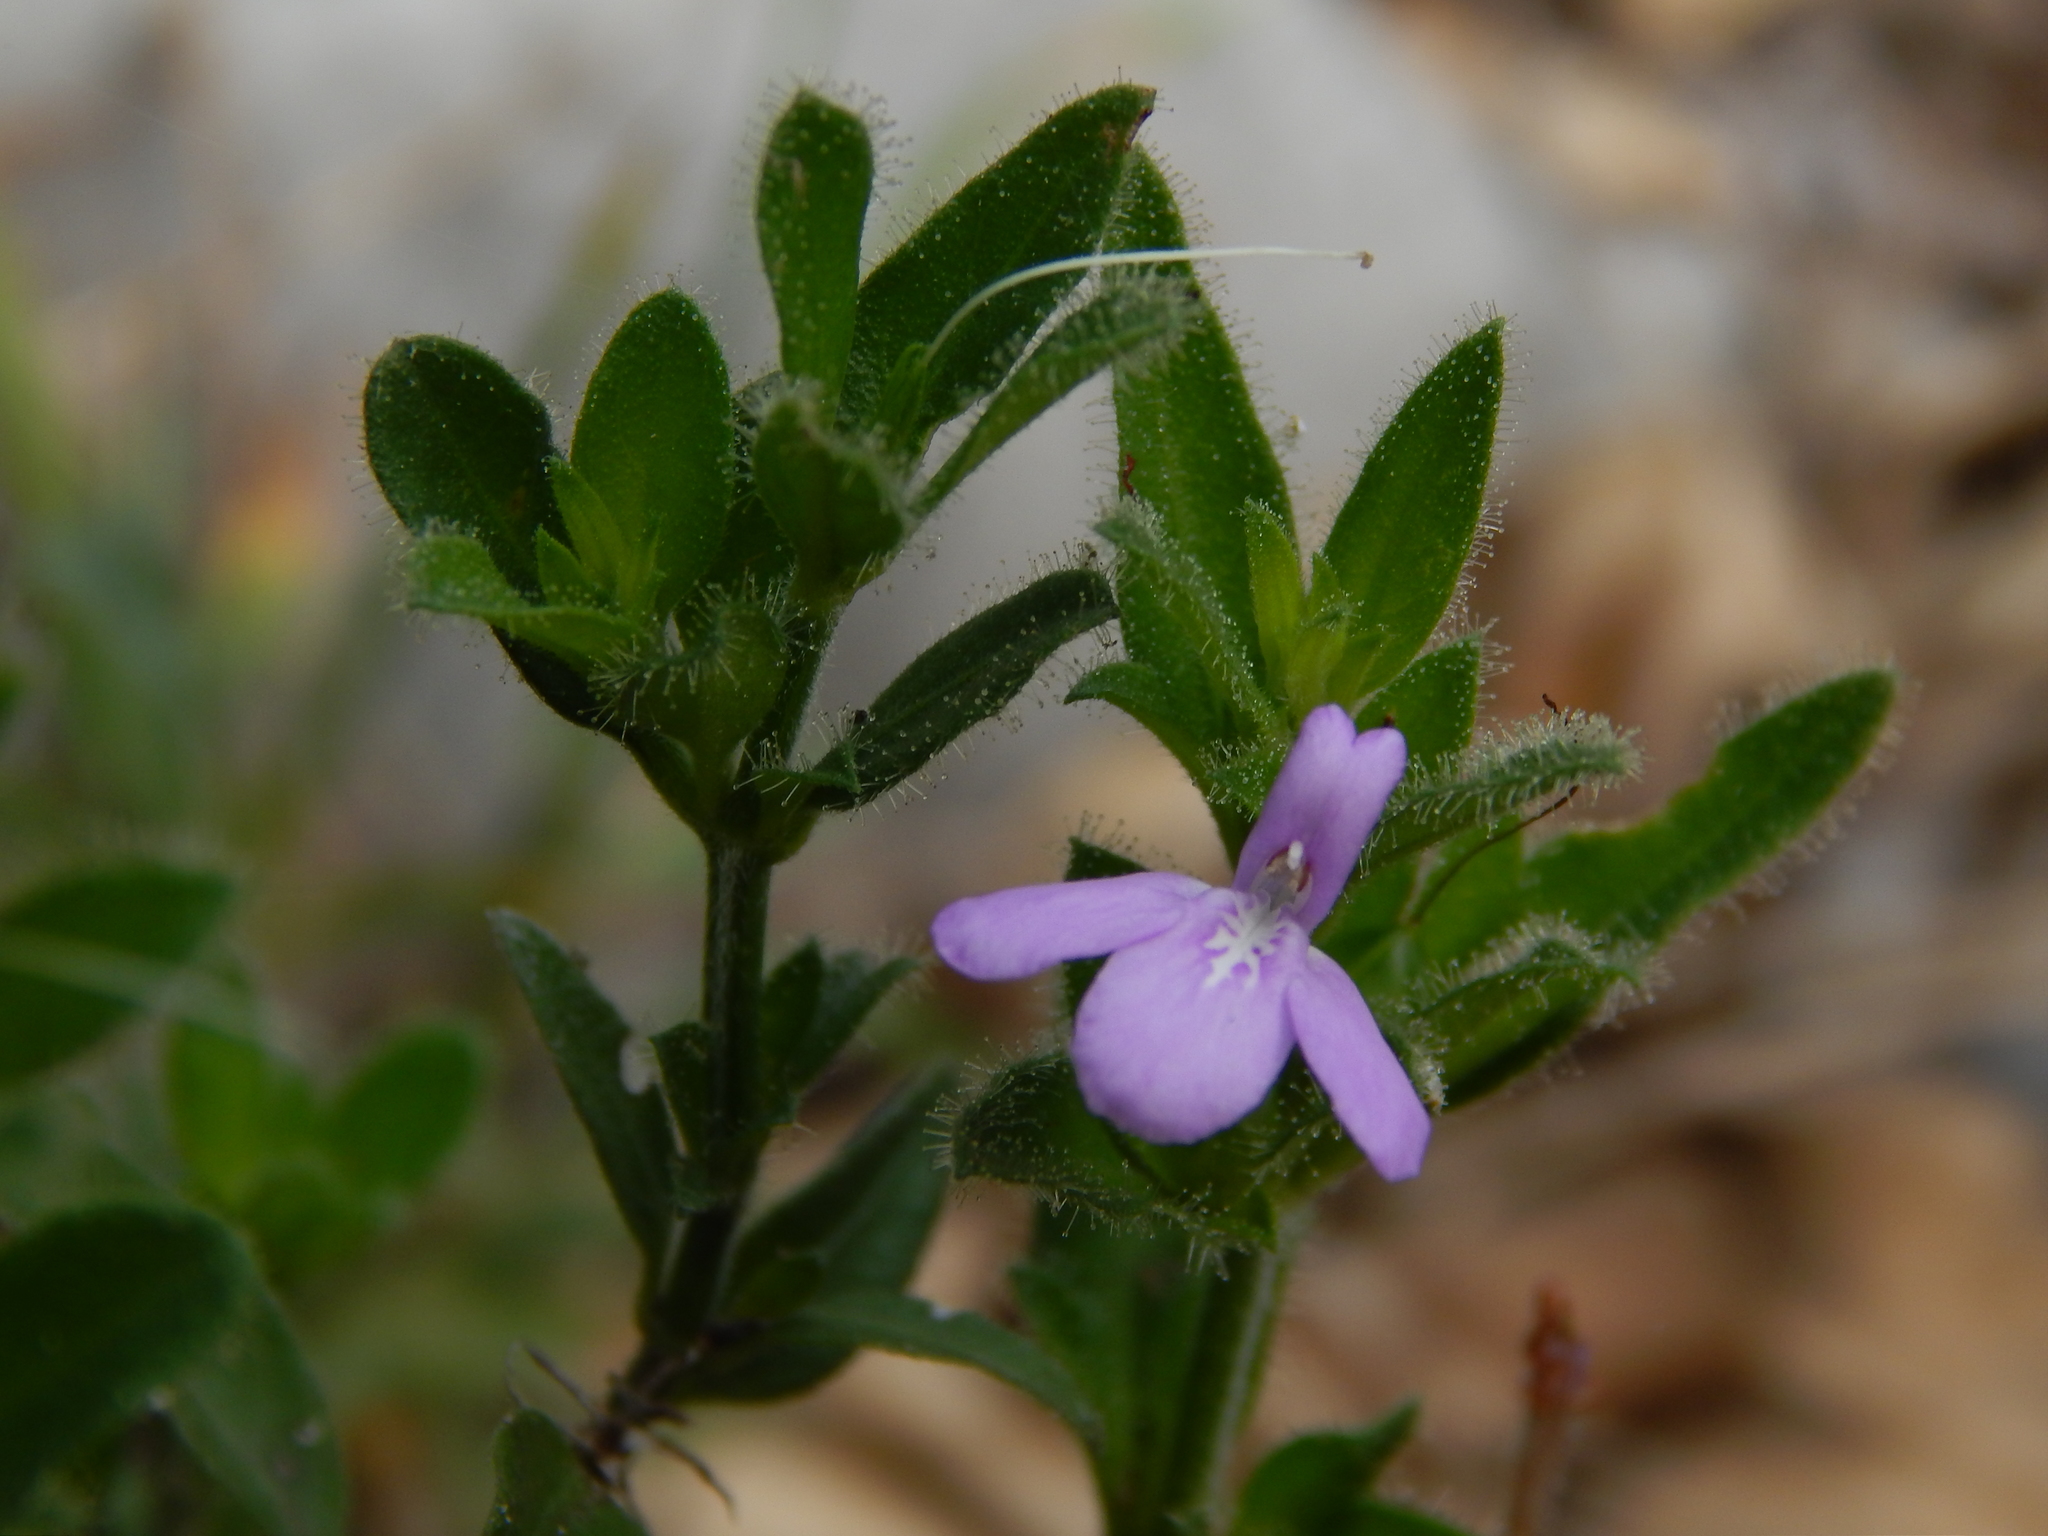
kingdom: Plantae
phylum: Tracheophyta
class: Magnoliopsida
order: Lamiales
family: Acanthaceae
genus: Justicia
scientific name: Justicia pilosella
